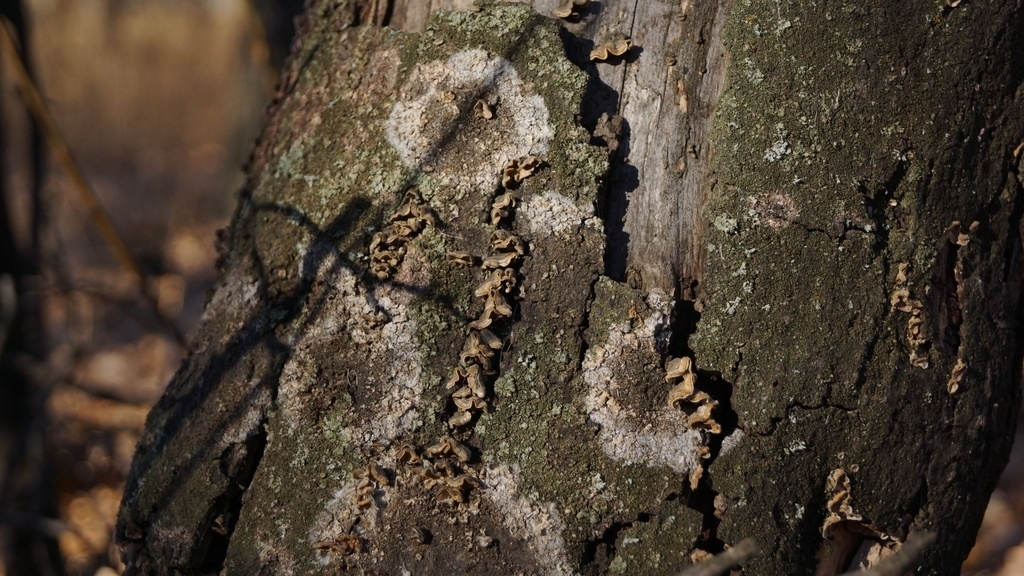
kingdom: Fungi
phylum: Basidiomycota
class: Agaricomycetes
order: Atheliales
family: Atheliaceae
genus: Athelia
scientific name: Athelia arachnoidea
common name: Candelabra duster
